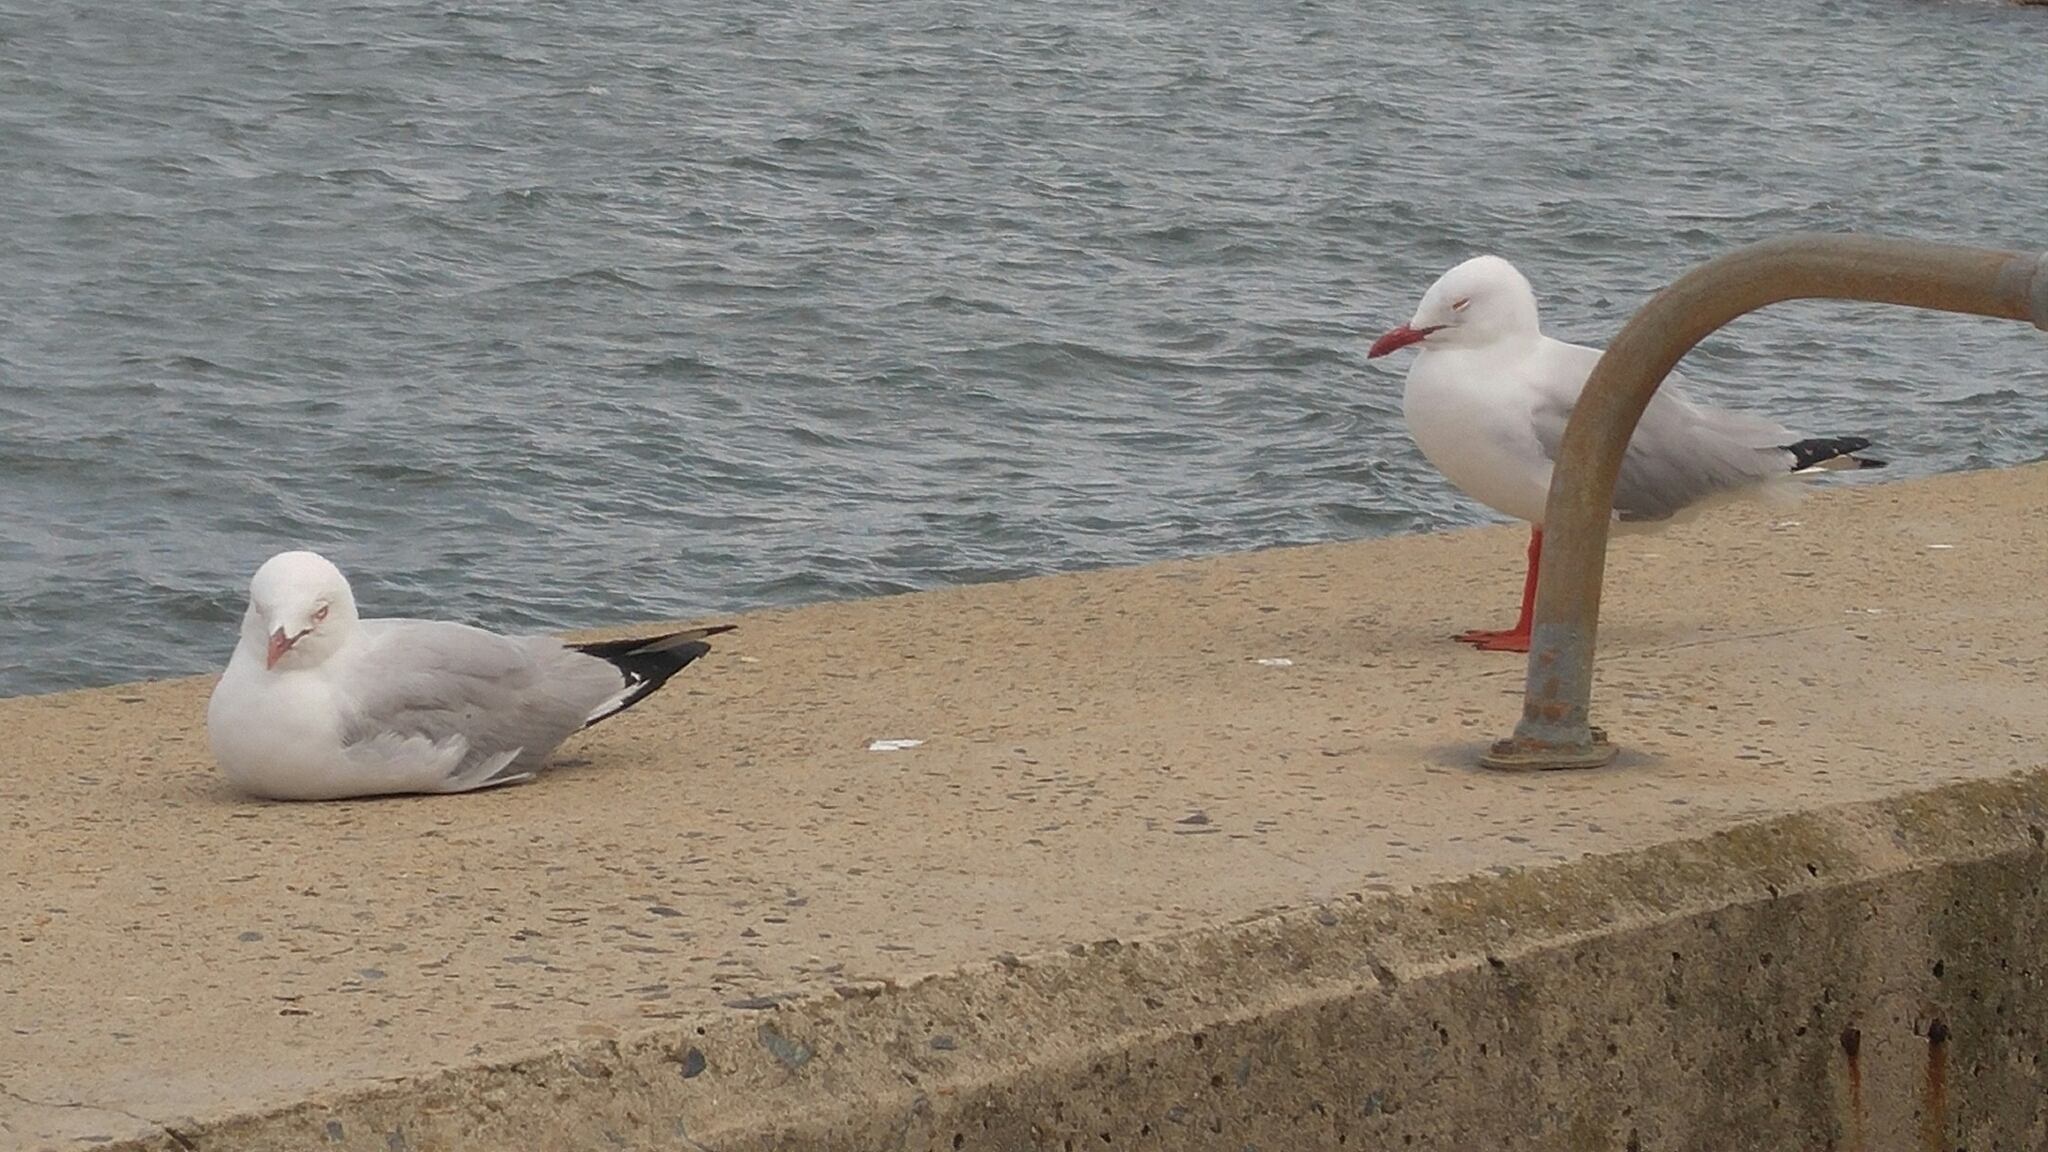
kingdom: Animalia
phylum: Chordata
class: Aves
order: Charadriiformes
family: Laridae
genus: Chroicocephalus
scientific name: Chroicocephalus novaehollandiae
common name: Silver gull
